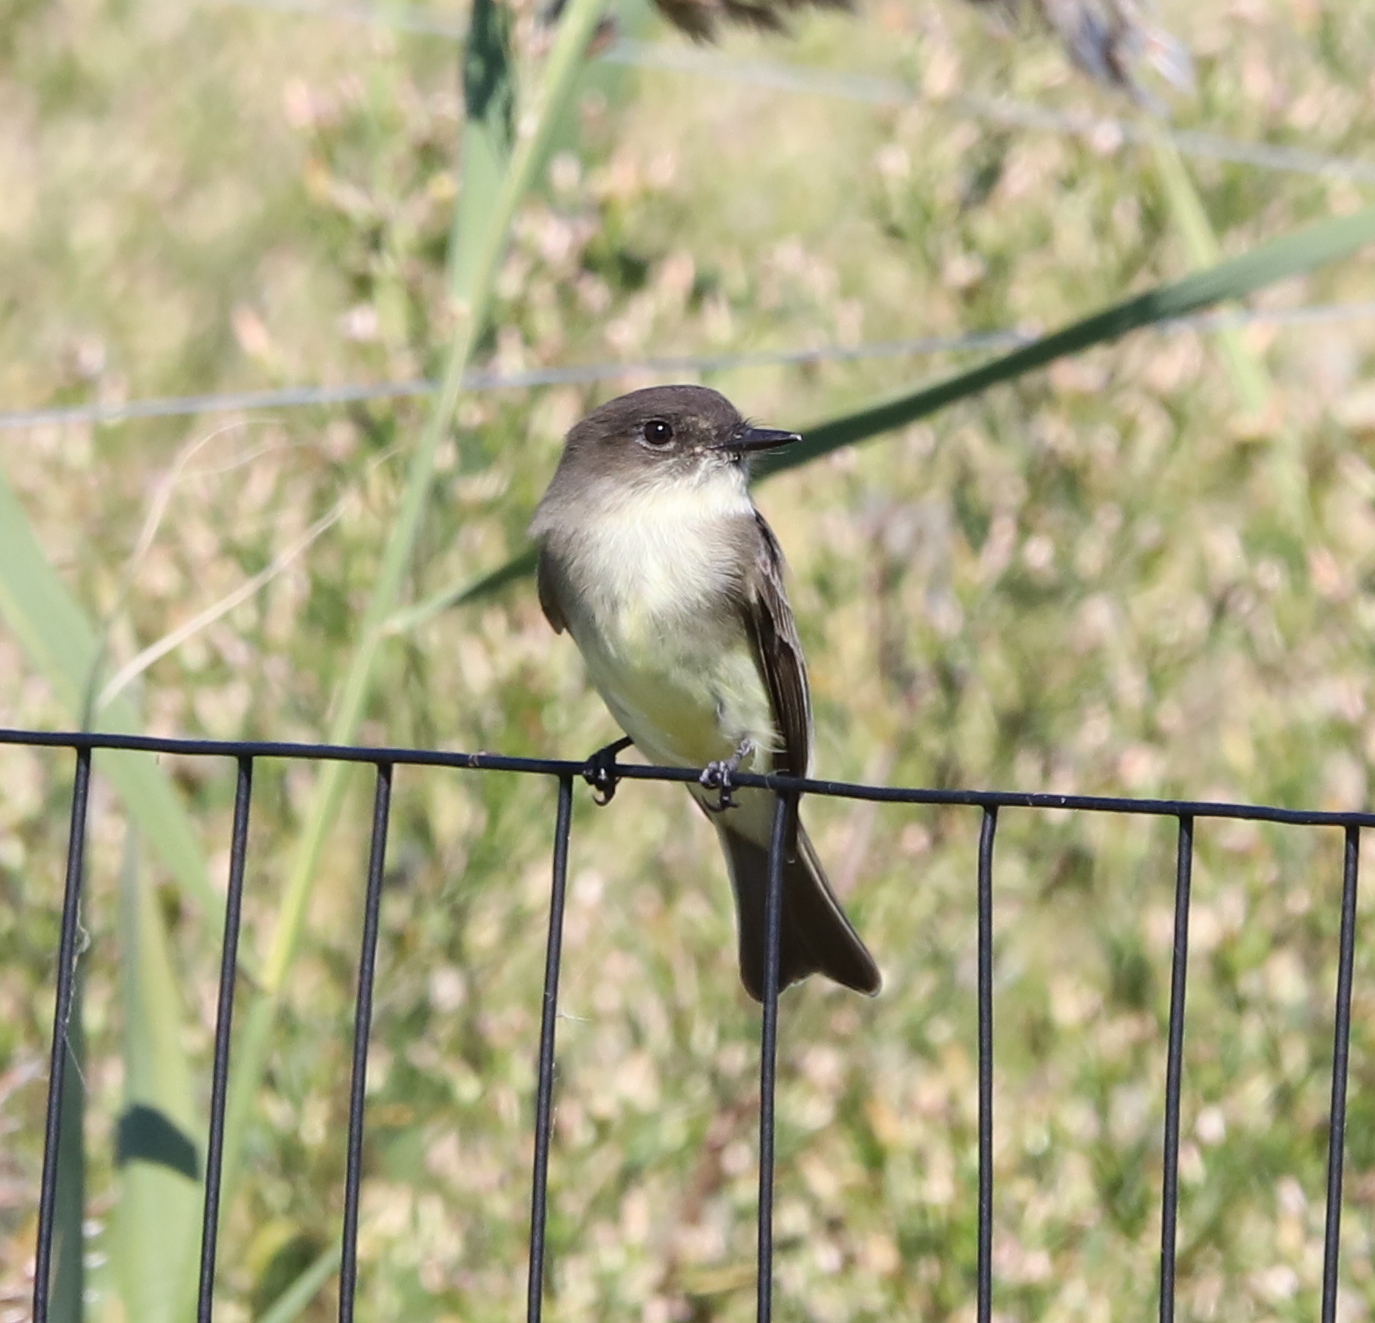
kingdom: Animalia
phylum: Chordata
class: Aves
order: Passeriformes
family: Tyrannidae
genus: Sayornis
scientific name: Sayornis phoebe
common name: Eastern phoebe
